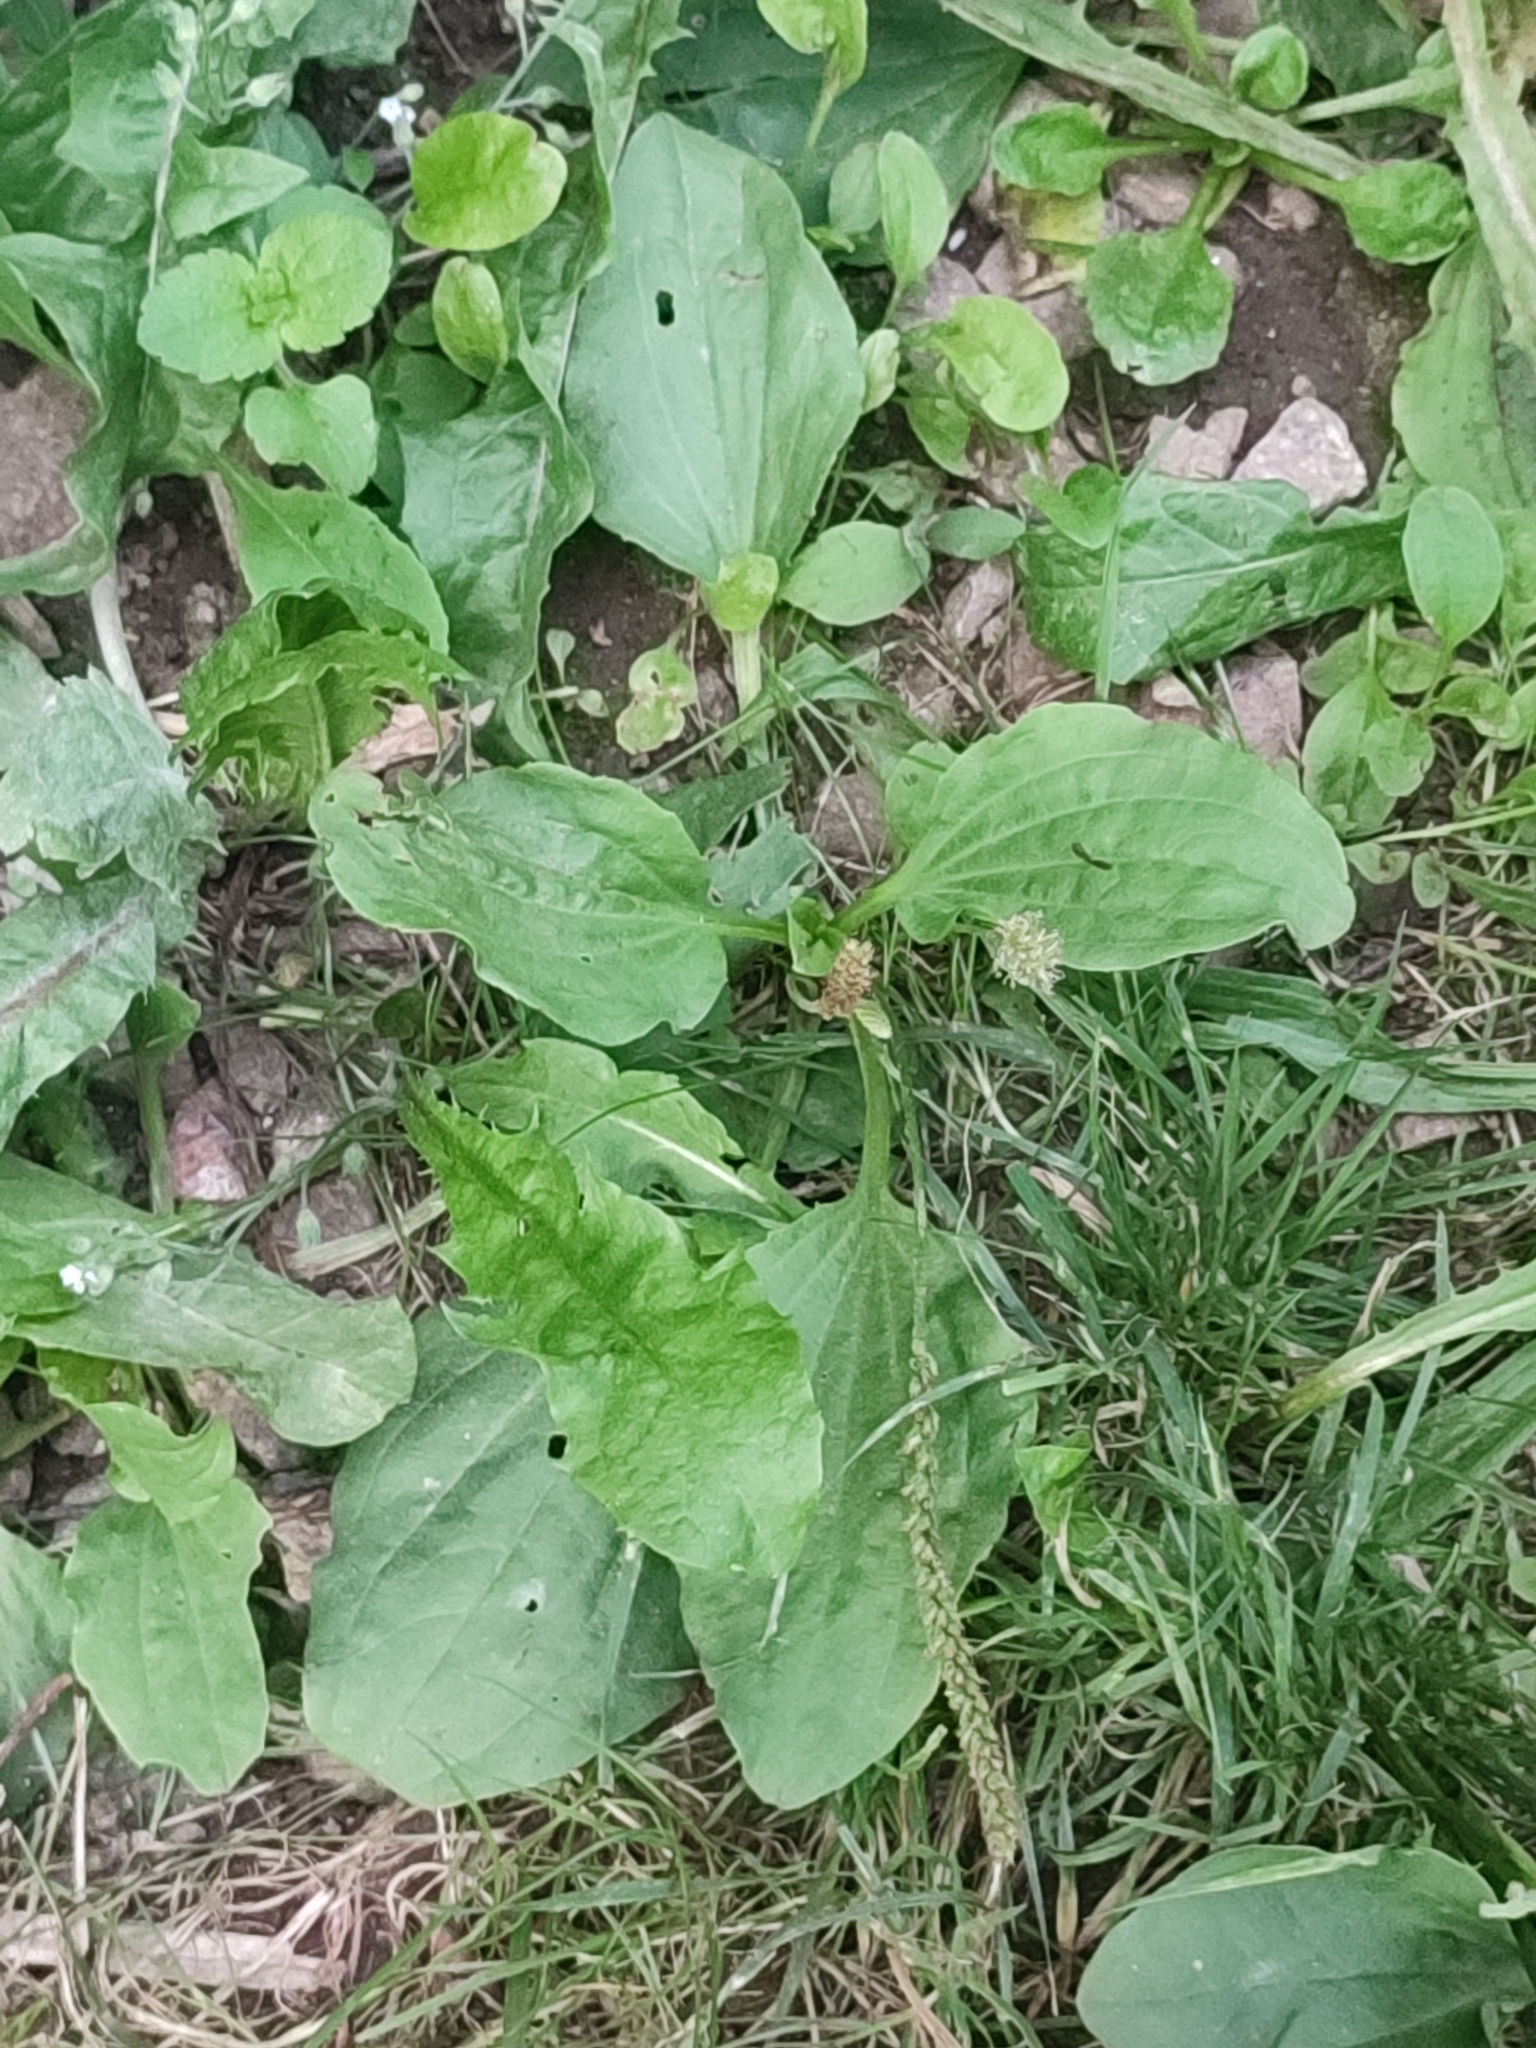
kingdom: Plantae
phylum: Tracheophyta
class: Magnoliopsida
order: Lamiales
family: Plantaginaceae
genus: Plantago
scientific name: Plantago major
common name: Common plantain
